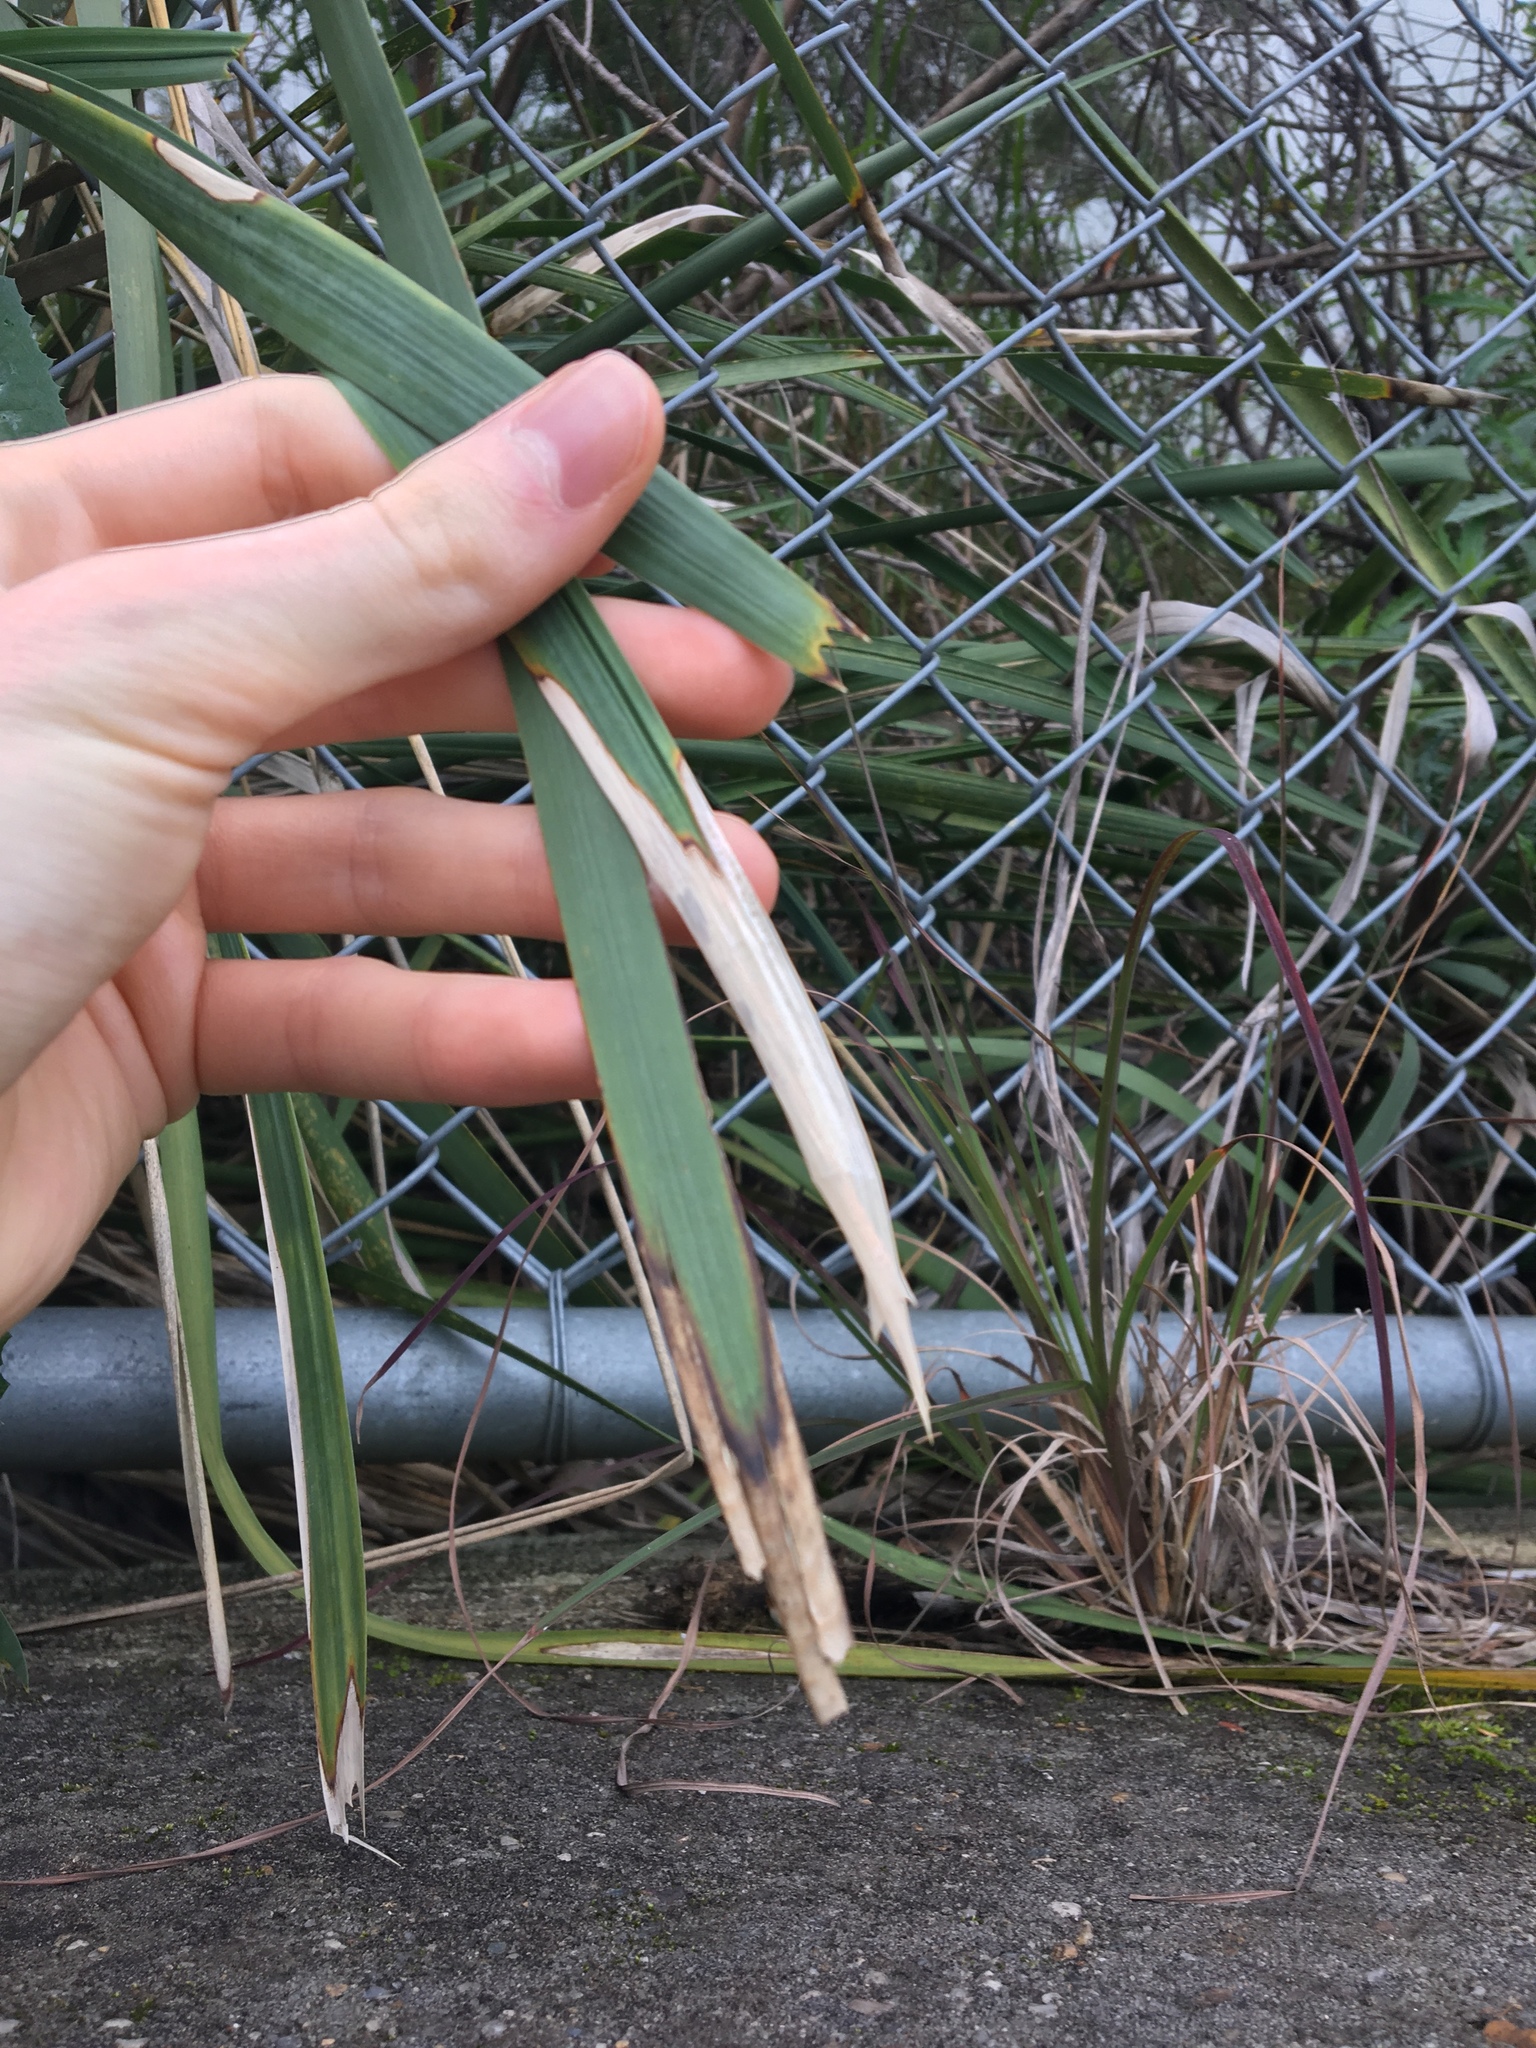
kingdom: Plantae
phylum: Tracheophyta
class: Liliopsida
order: Asparagales
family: Asparagaceae
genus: Lomandra
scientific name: Lomandra longifolia
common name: Longleaf mat-rush
